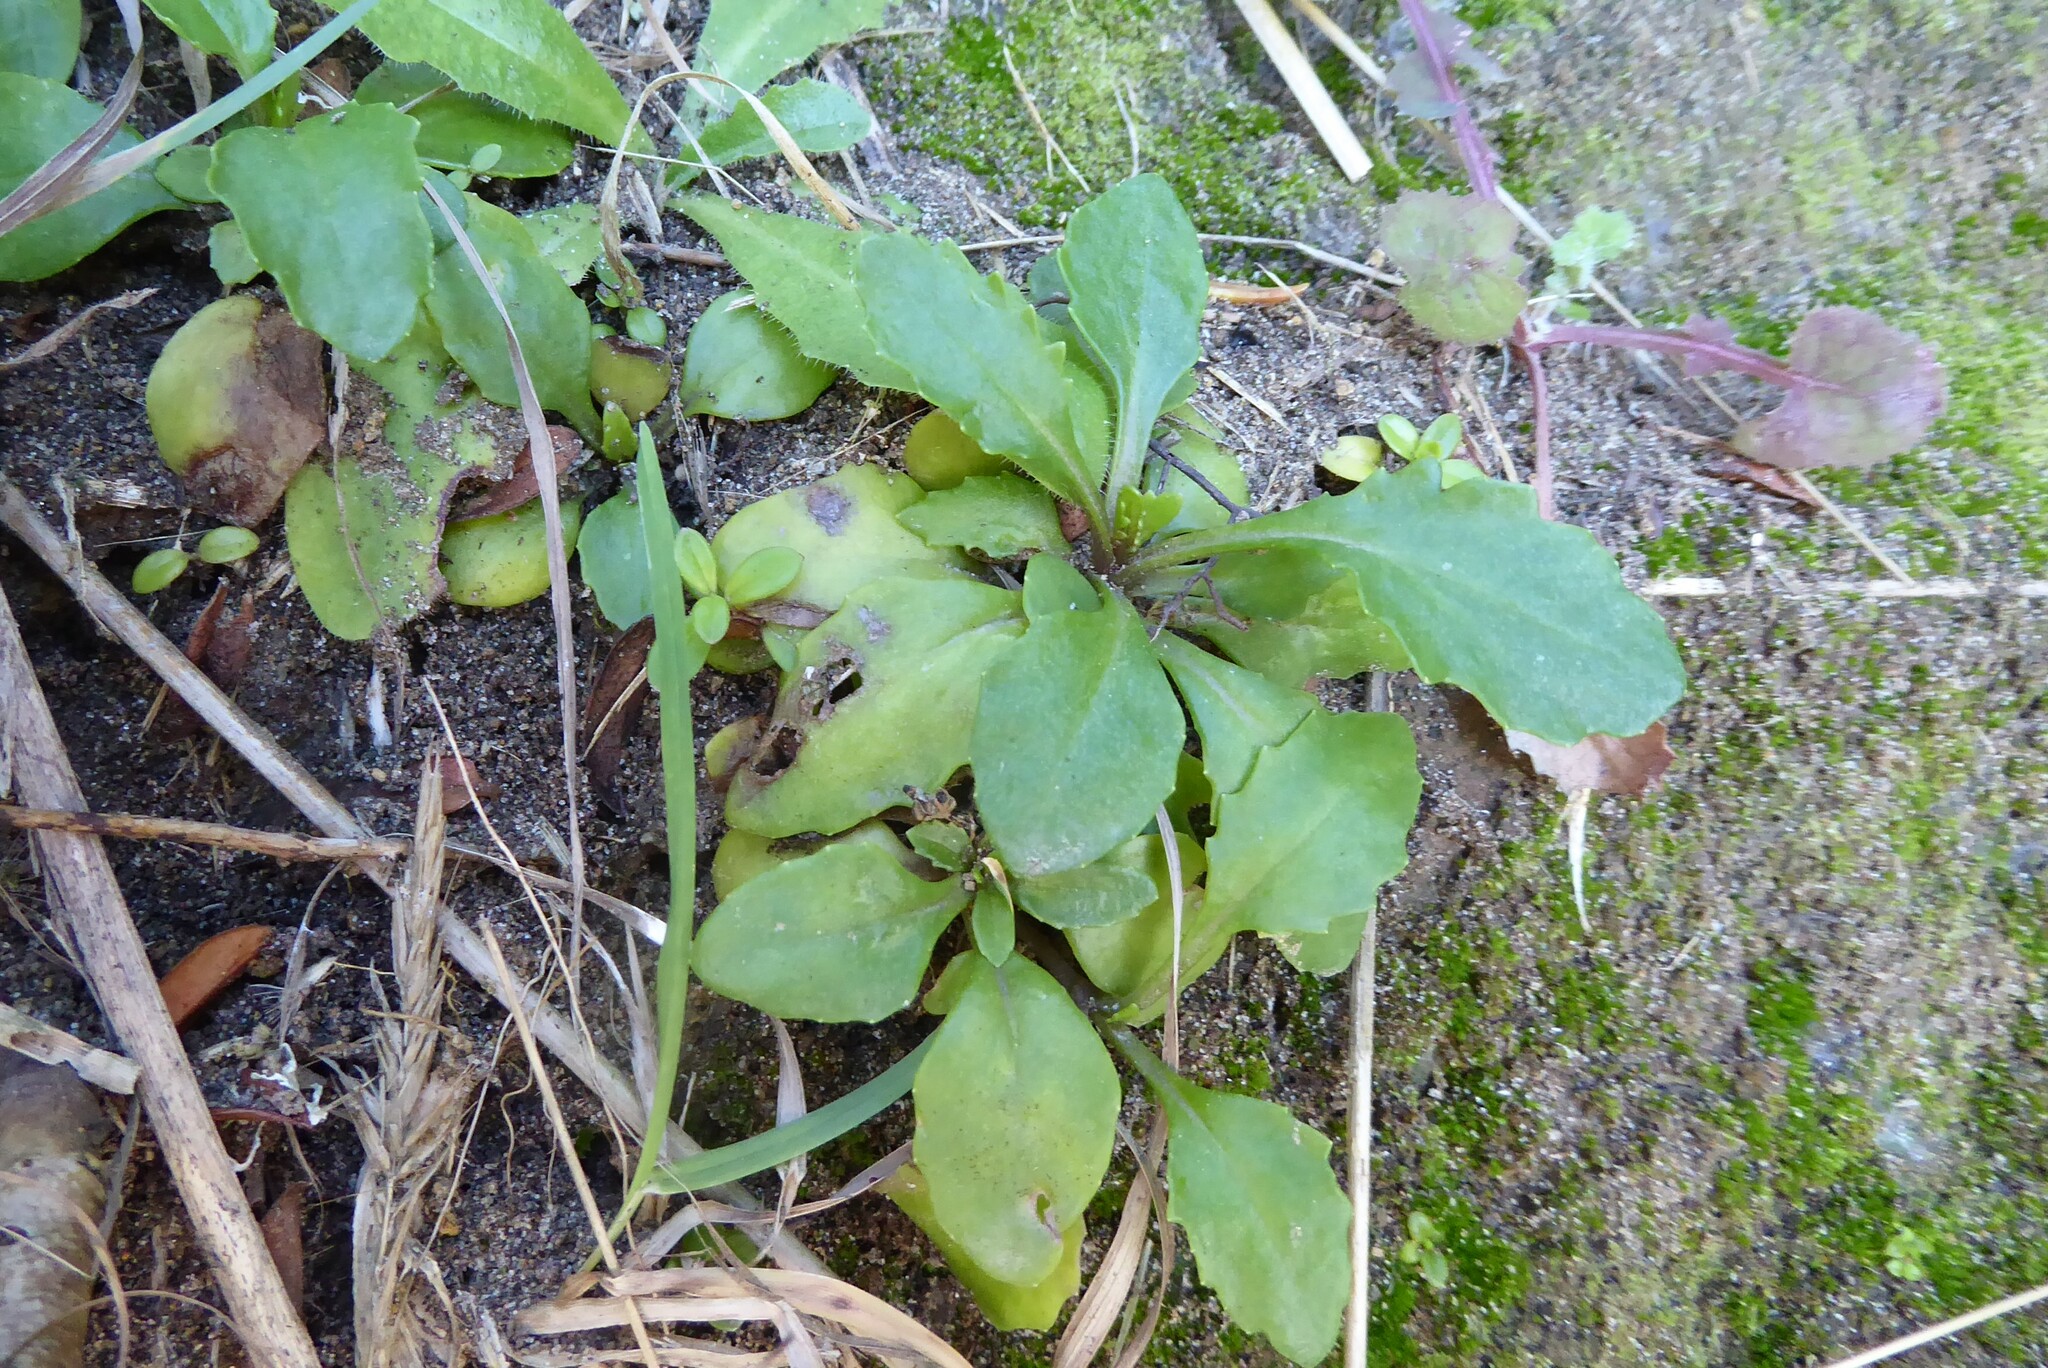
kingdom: Plantae
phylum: Tracheophyta
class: Magnoliopsida
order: Asterales
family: Asteraceae
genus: Senecio
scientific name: Senecio carnosulus
